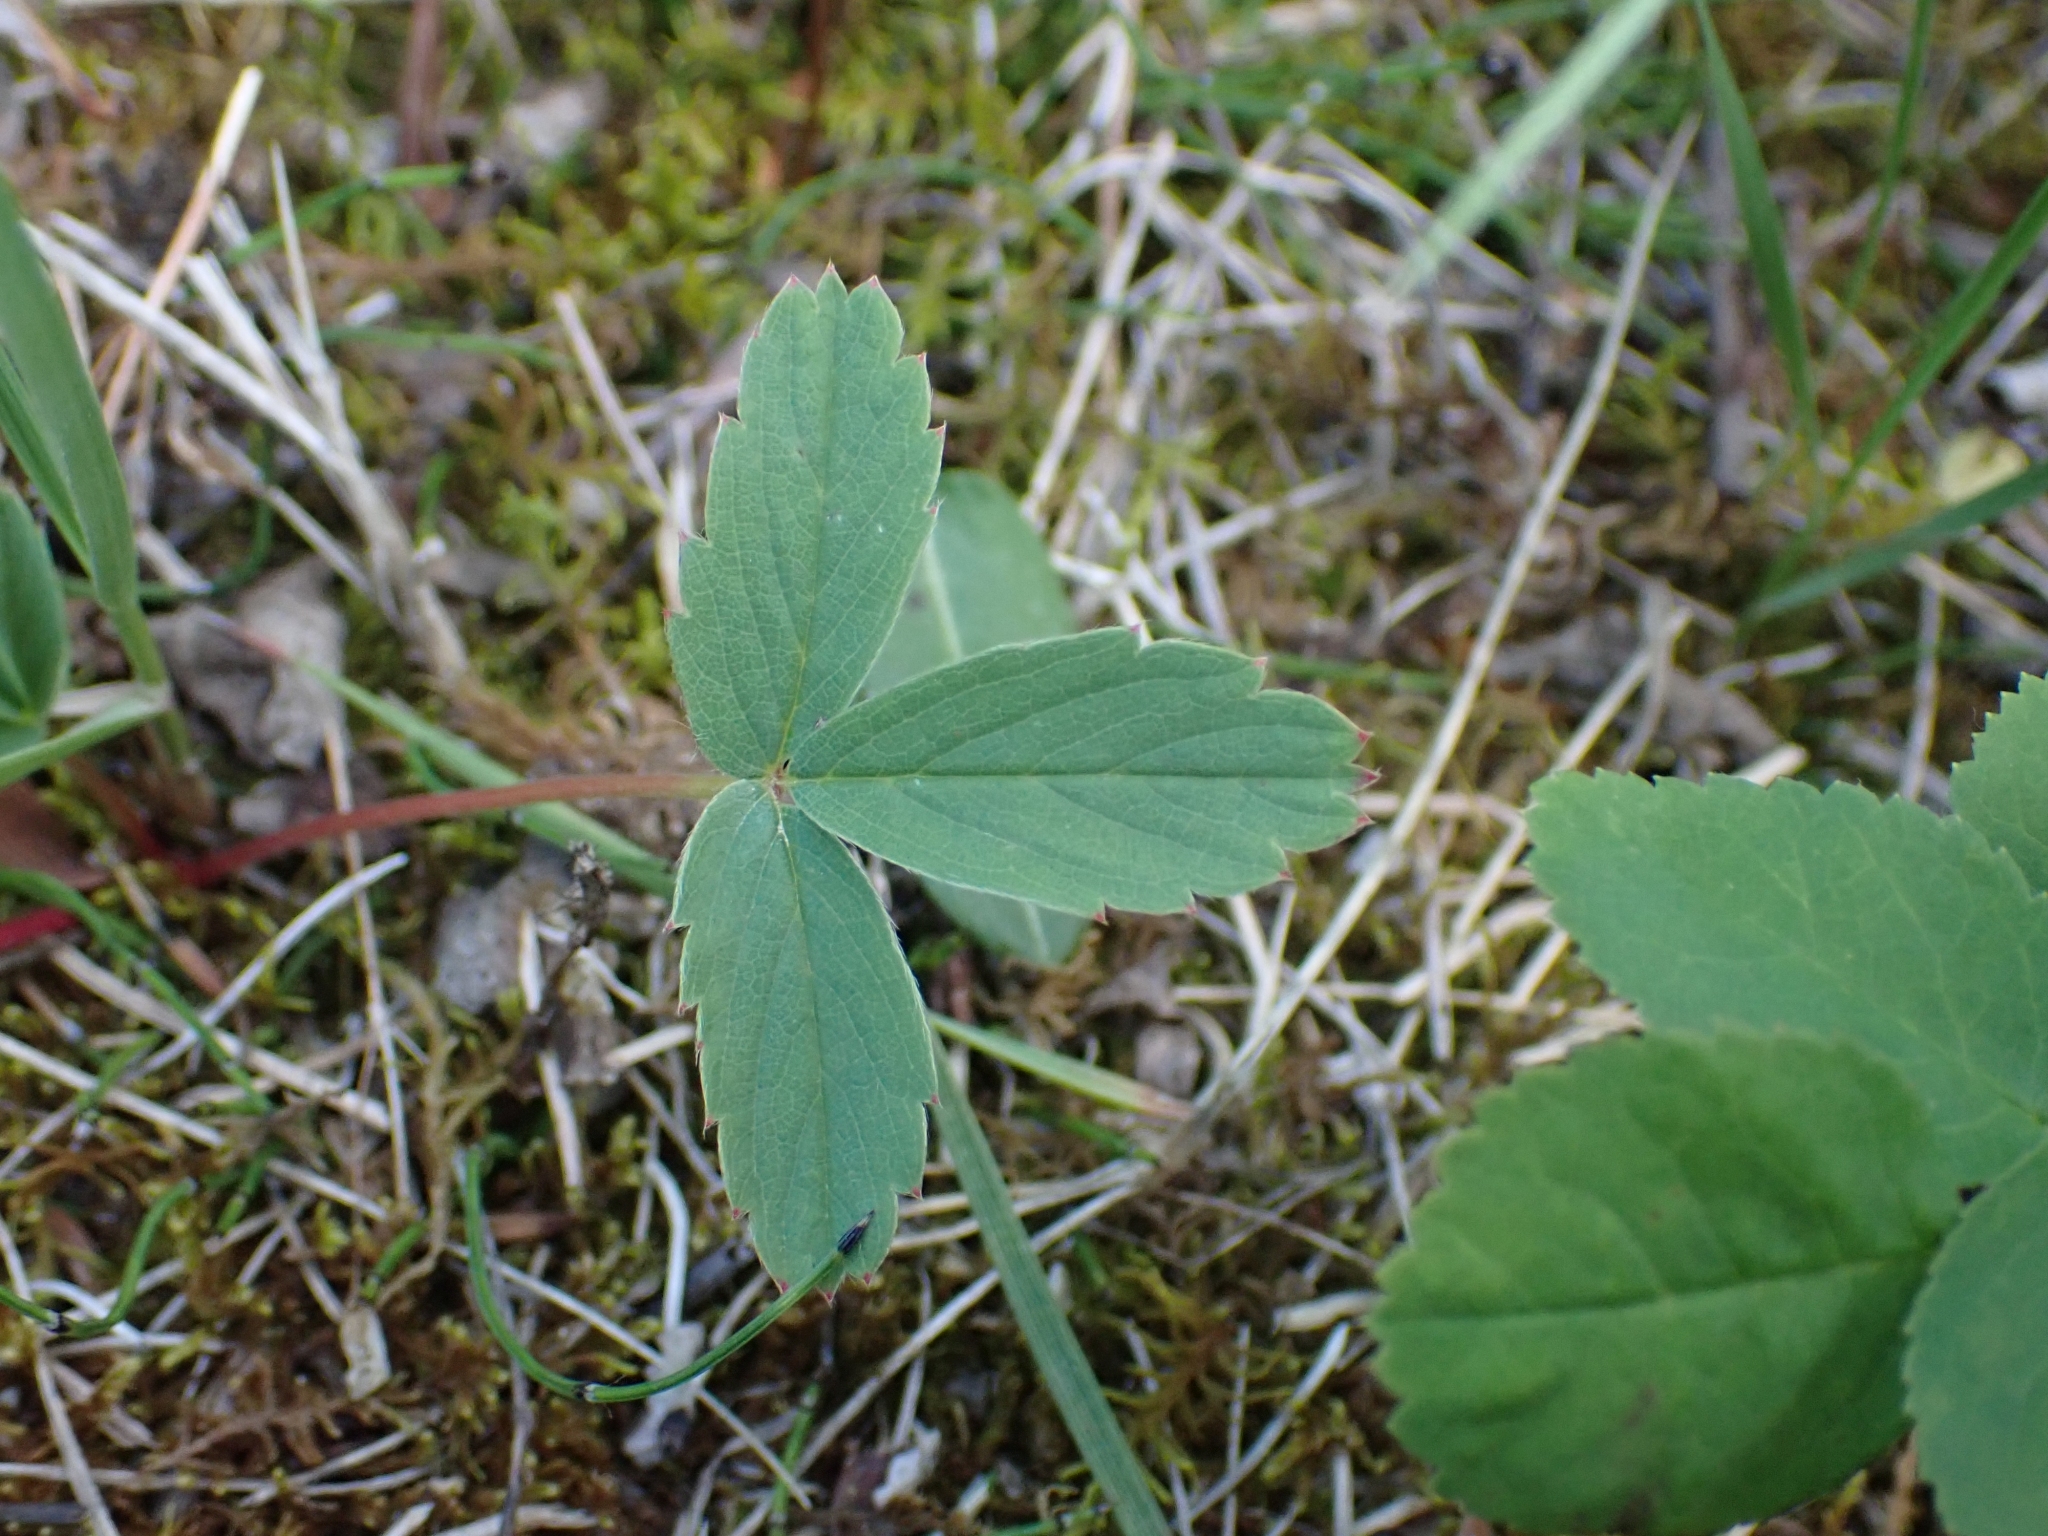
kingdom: Plantae
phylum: Tracheophyta
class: Magnoliopsida
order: Rosales
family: Rosaceae
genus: Fragaria
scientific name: Fragaria virginiana
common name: Thickleaved wild strawberry
